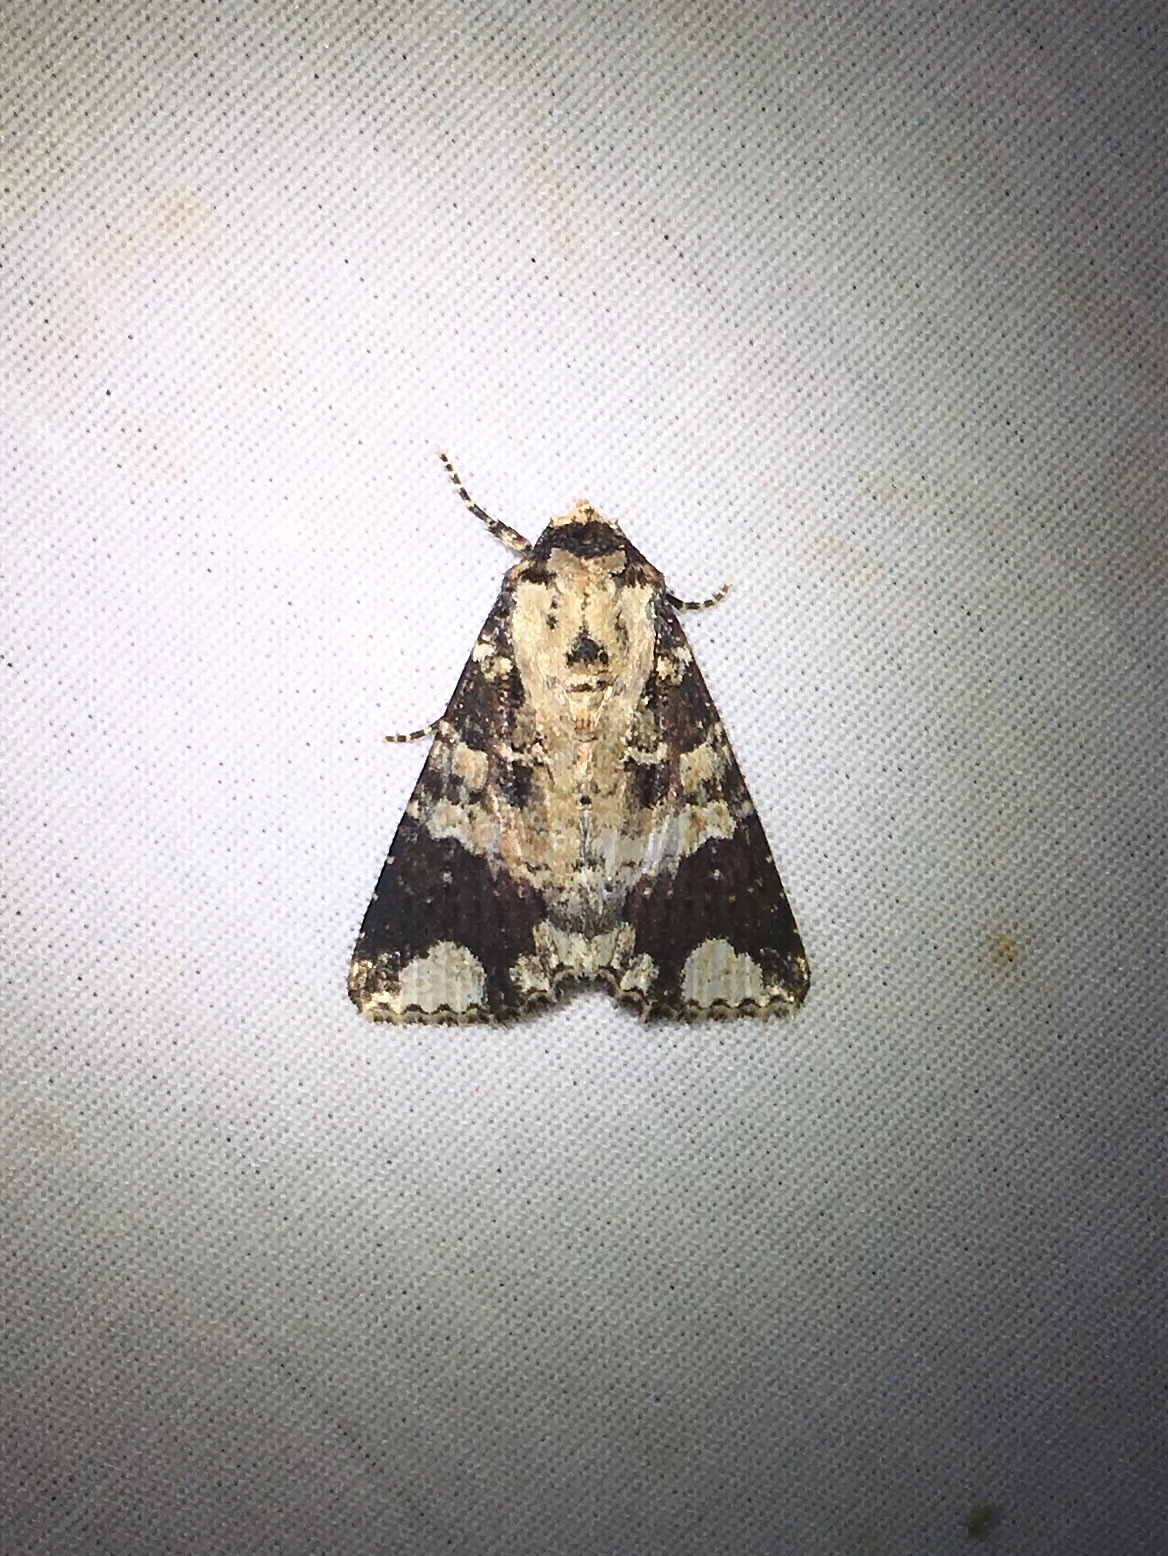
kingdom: Animalia
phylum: Arthropoda
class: Insecta
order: Lepidoptera
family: Noctuidae
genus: Condica
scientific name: Condica confederata
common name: The confederate
